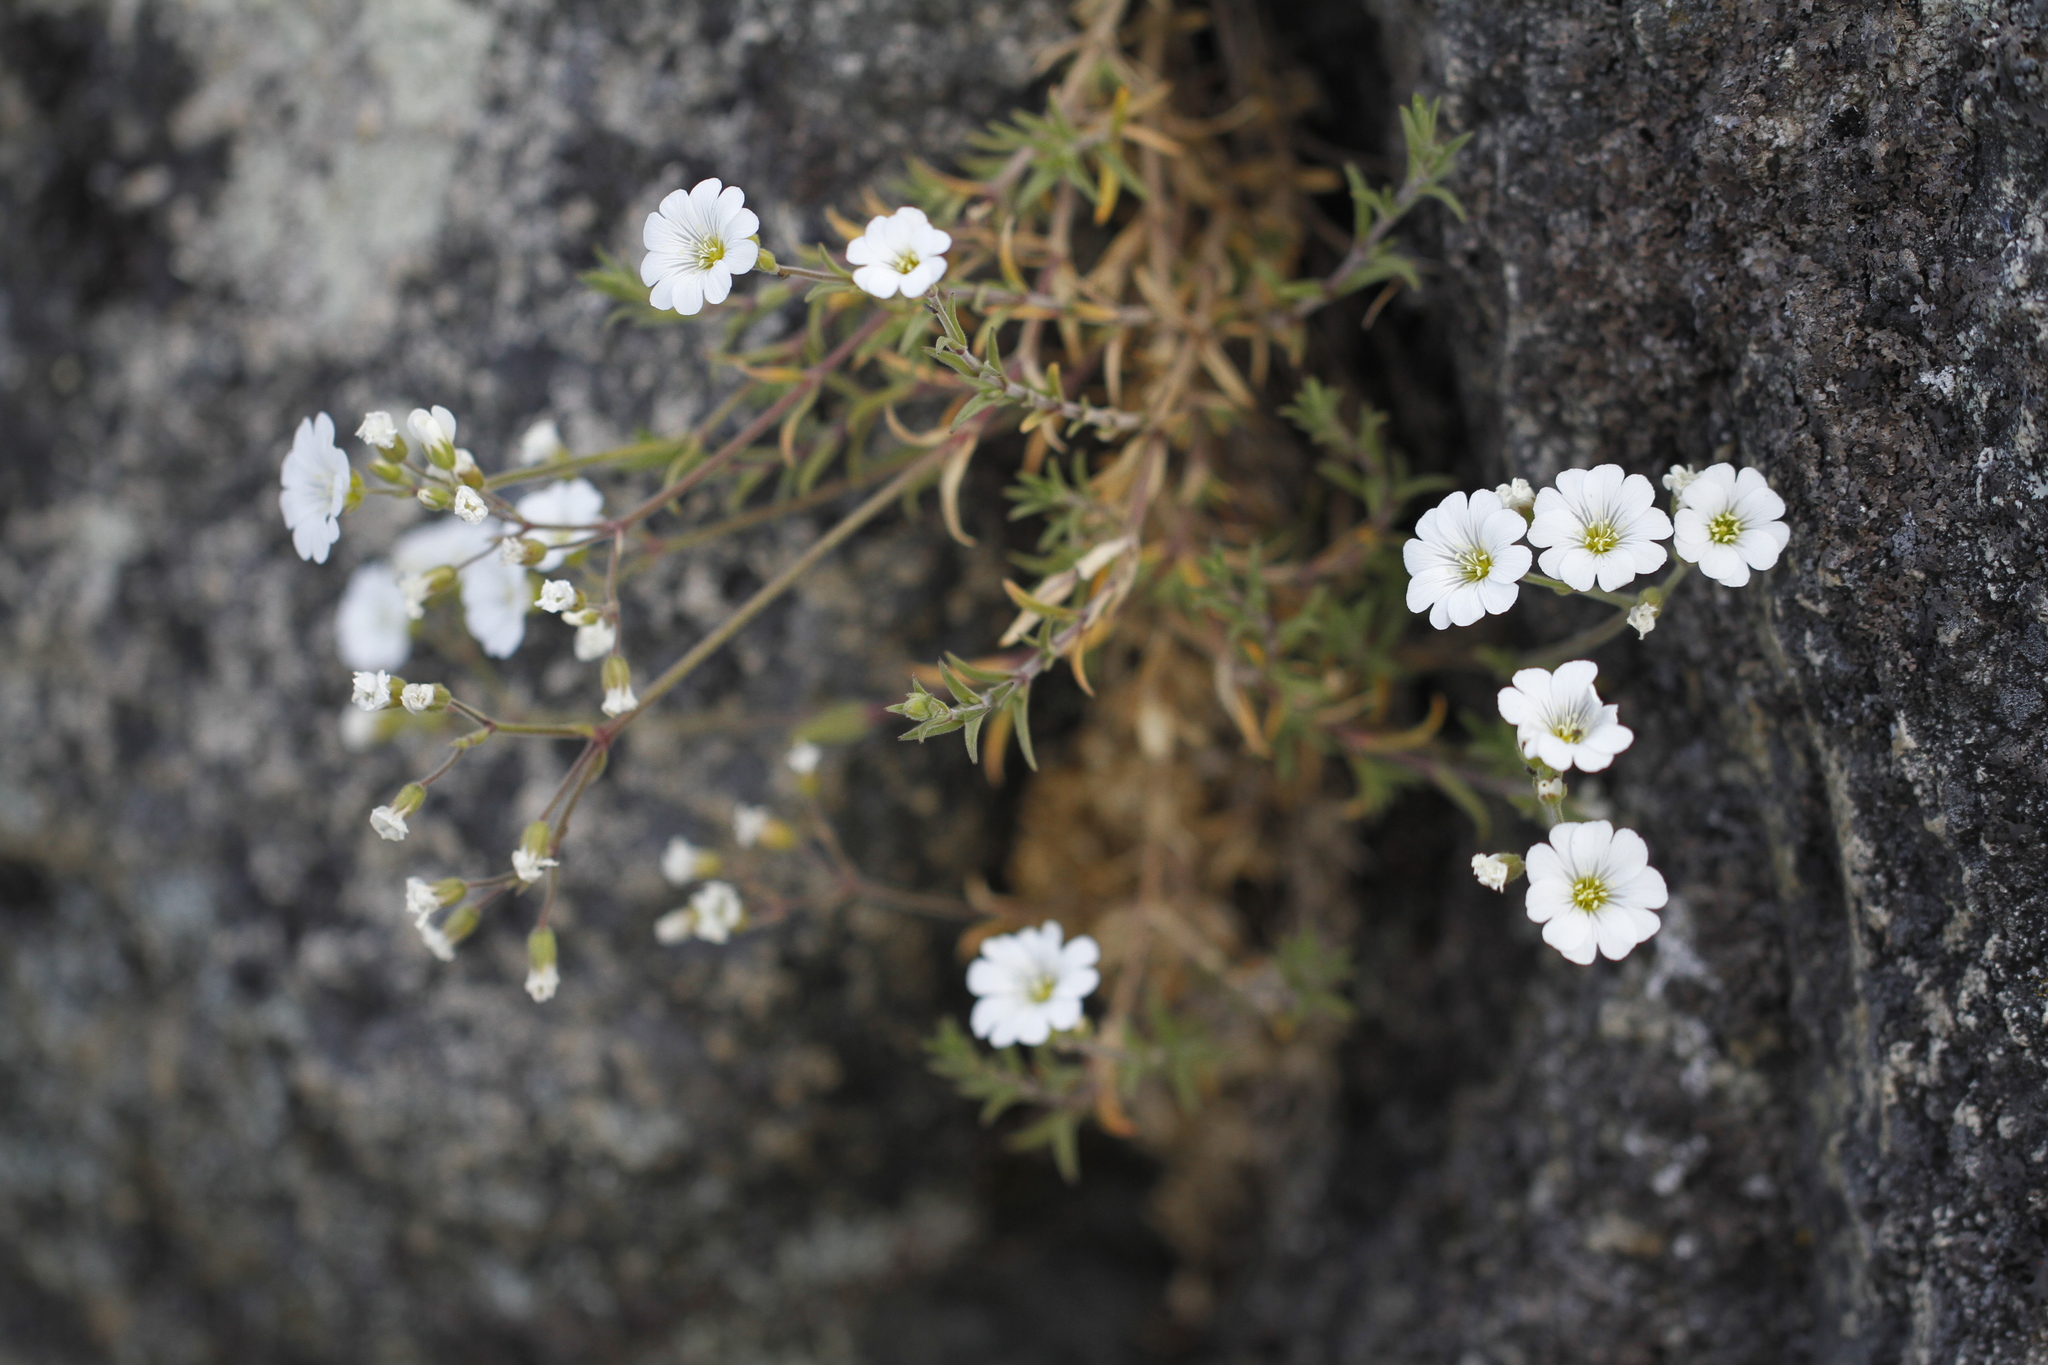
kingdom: Plantae
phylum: Tracheophyta
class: Magnoliopsida
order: Caryophyllales
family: Caryophyllaceae
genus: Cerastium
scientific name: Cerastium arvense
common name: Field mouse-ear
